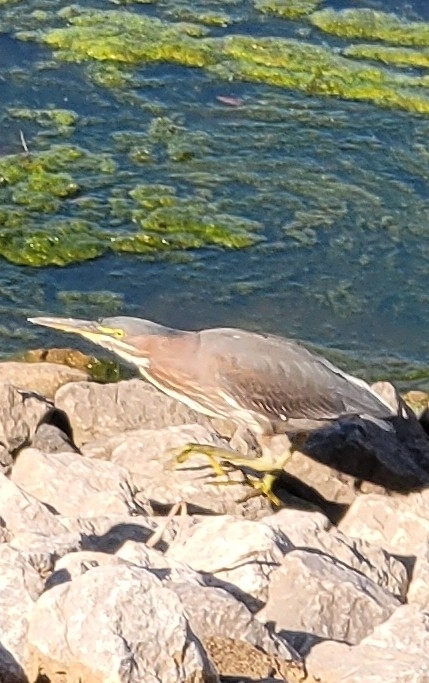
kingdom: Animalia
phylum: Chordata
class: Aves
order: Pelecaniformes
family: Ardeidae
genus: Butorides
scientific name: Butorides virescens
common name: Green heron
